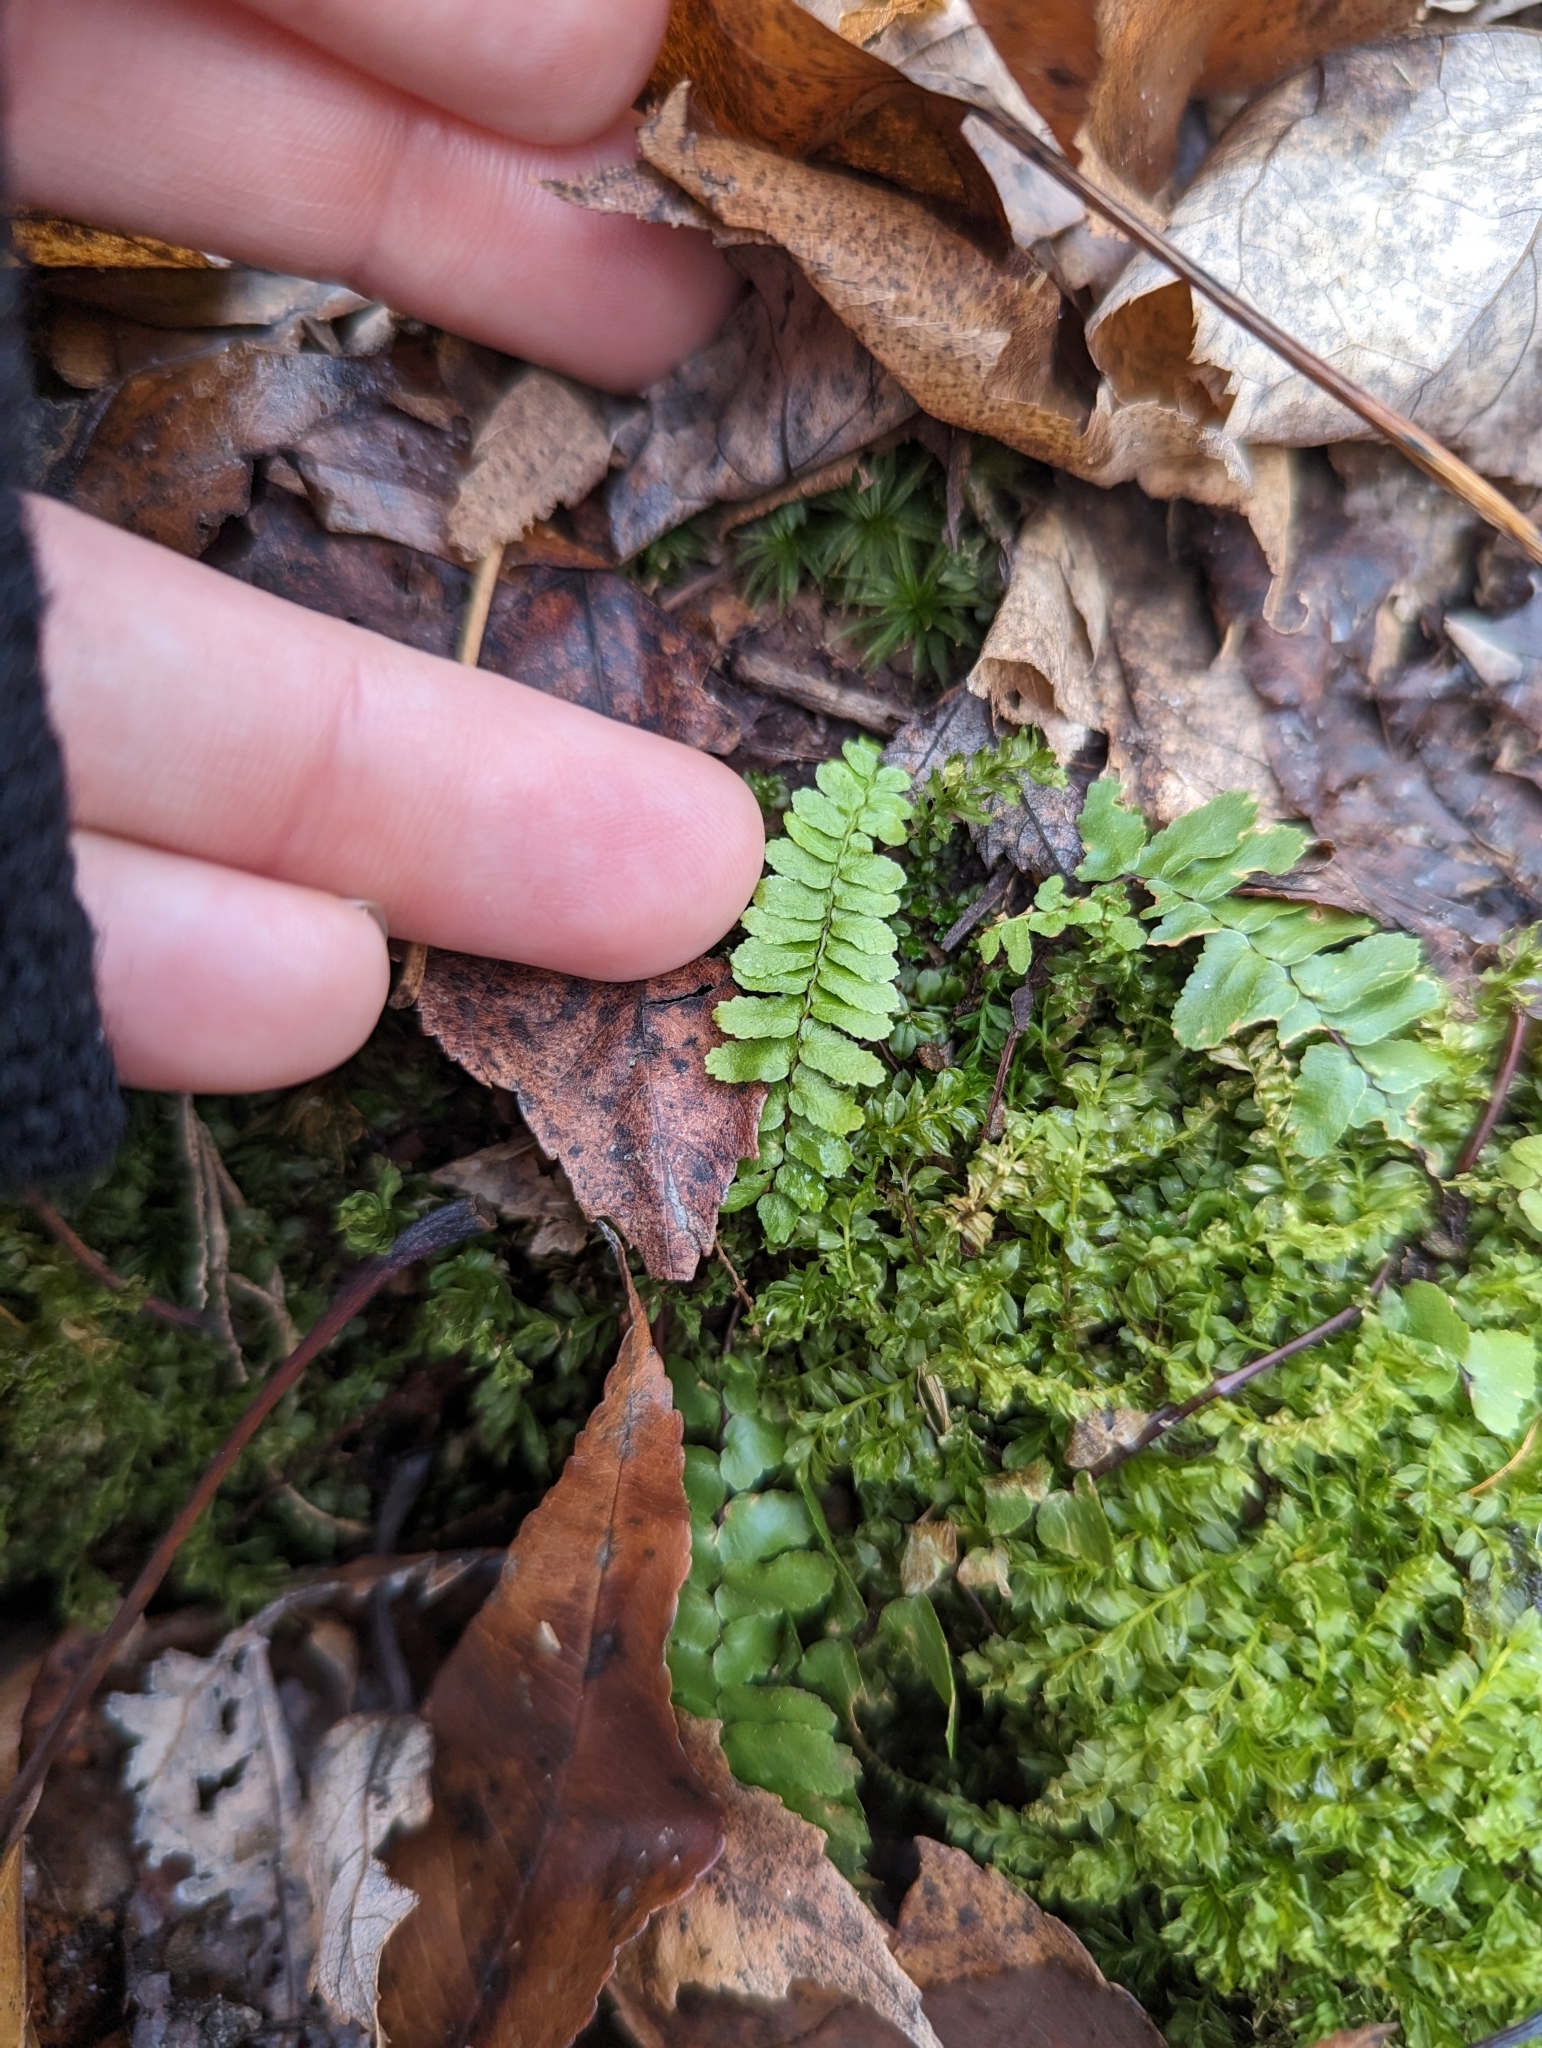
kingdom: Plantae
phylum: Tracheophyta
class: Polypodiopsida
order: Polypodiales
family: Aspleniaceae
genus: Asplenium
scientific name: Asplenium platyneuron
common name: Ebony spleenwort
